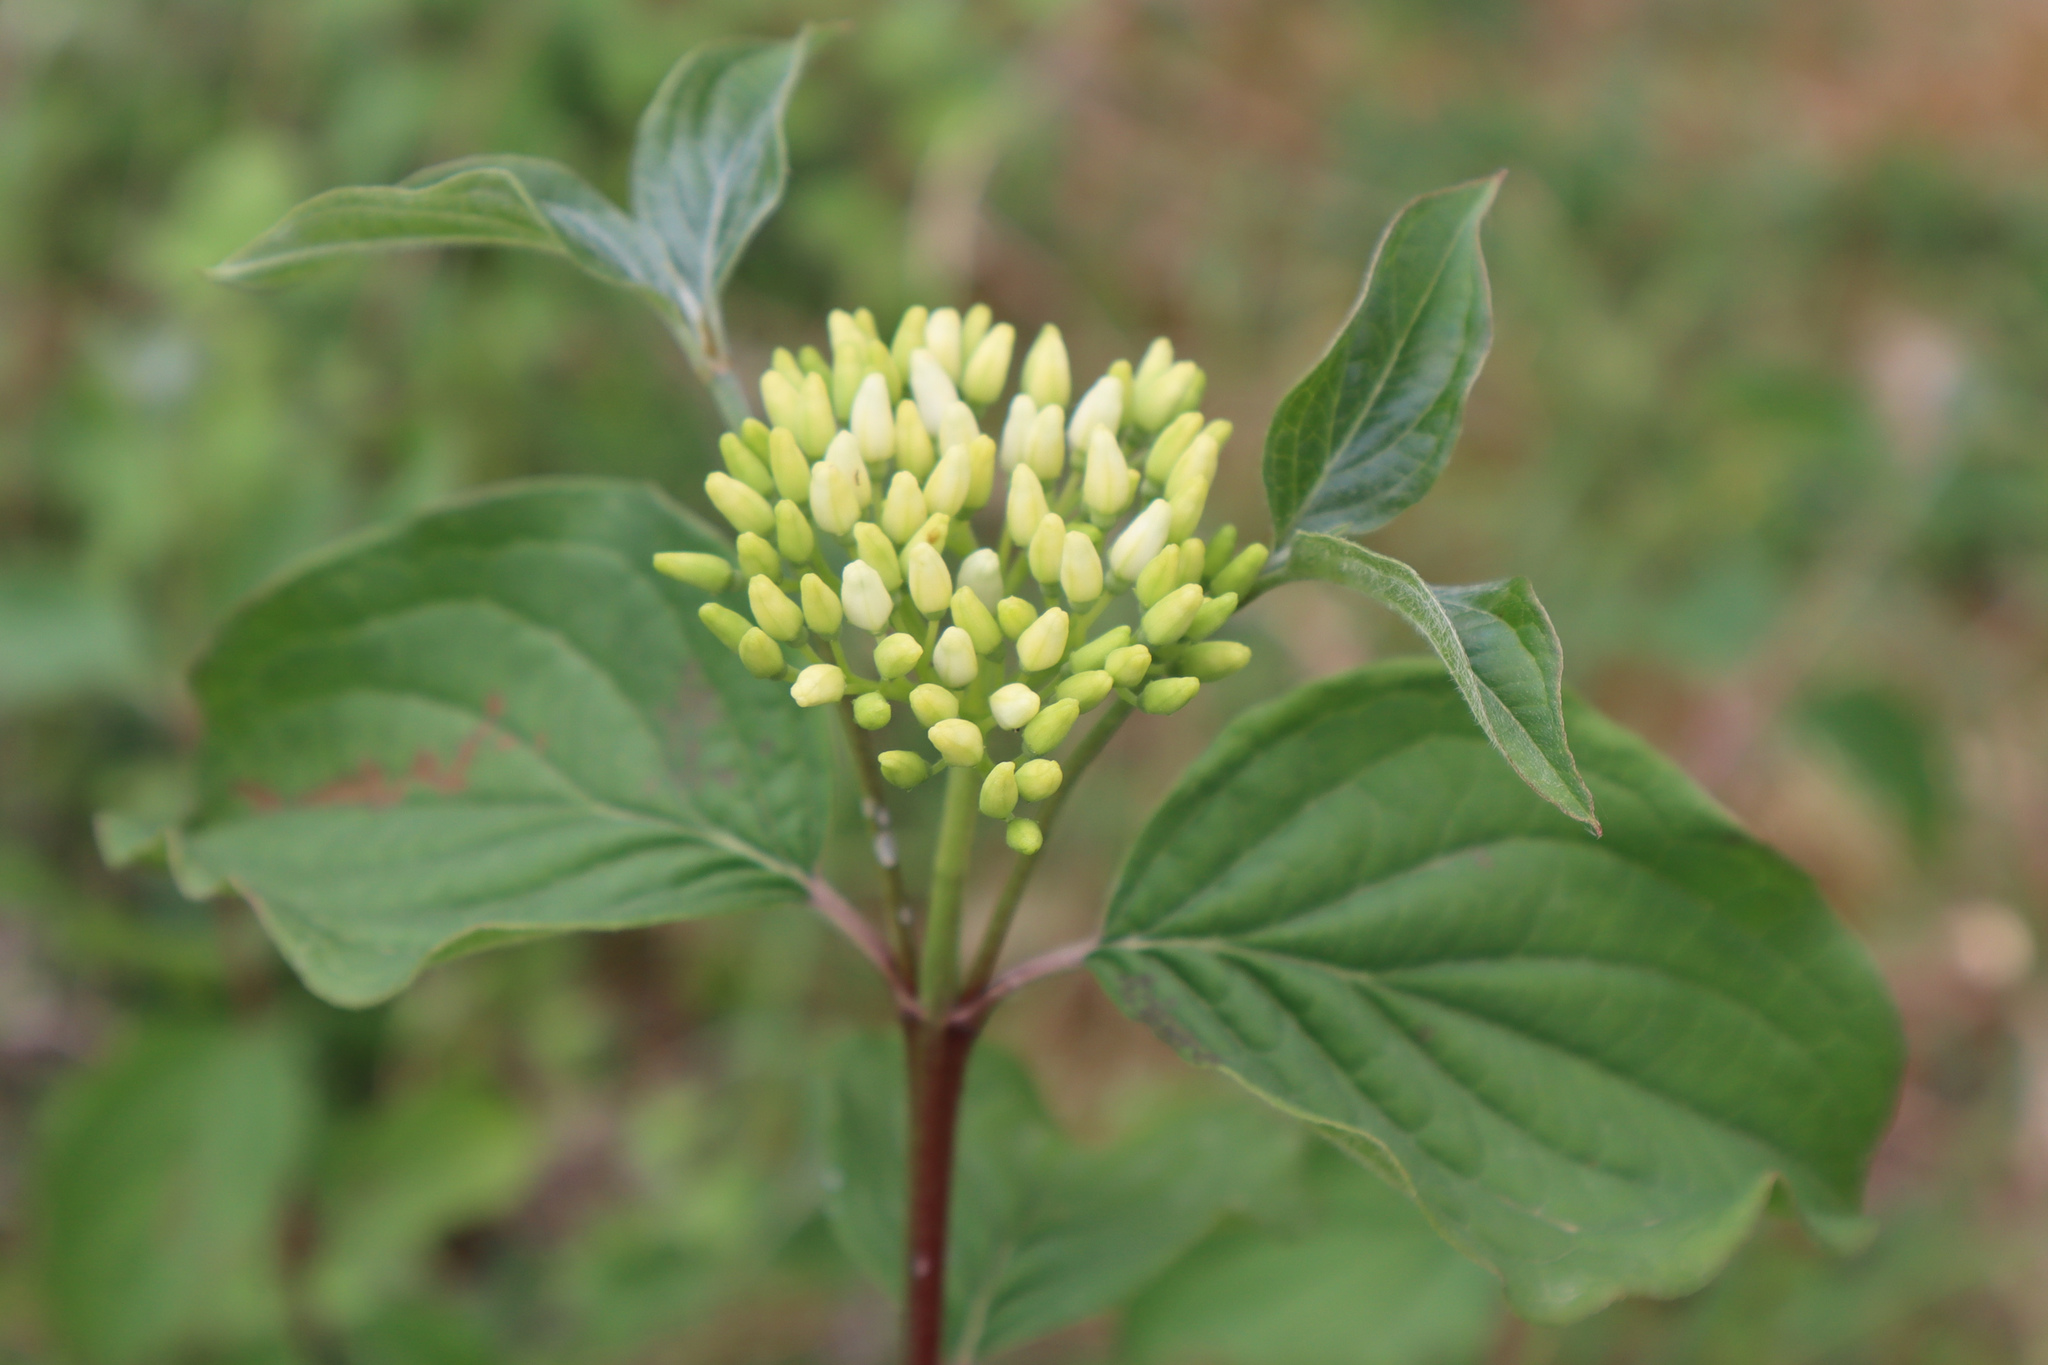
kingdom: Plantae
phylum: Tracheophyta
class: Magnoliopsida
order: Cornales
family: Cornaceae
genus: Cornus
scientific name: Cornus sanguinea
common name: Dogwood
